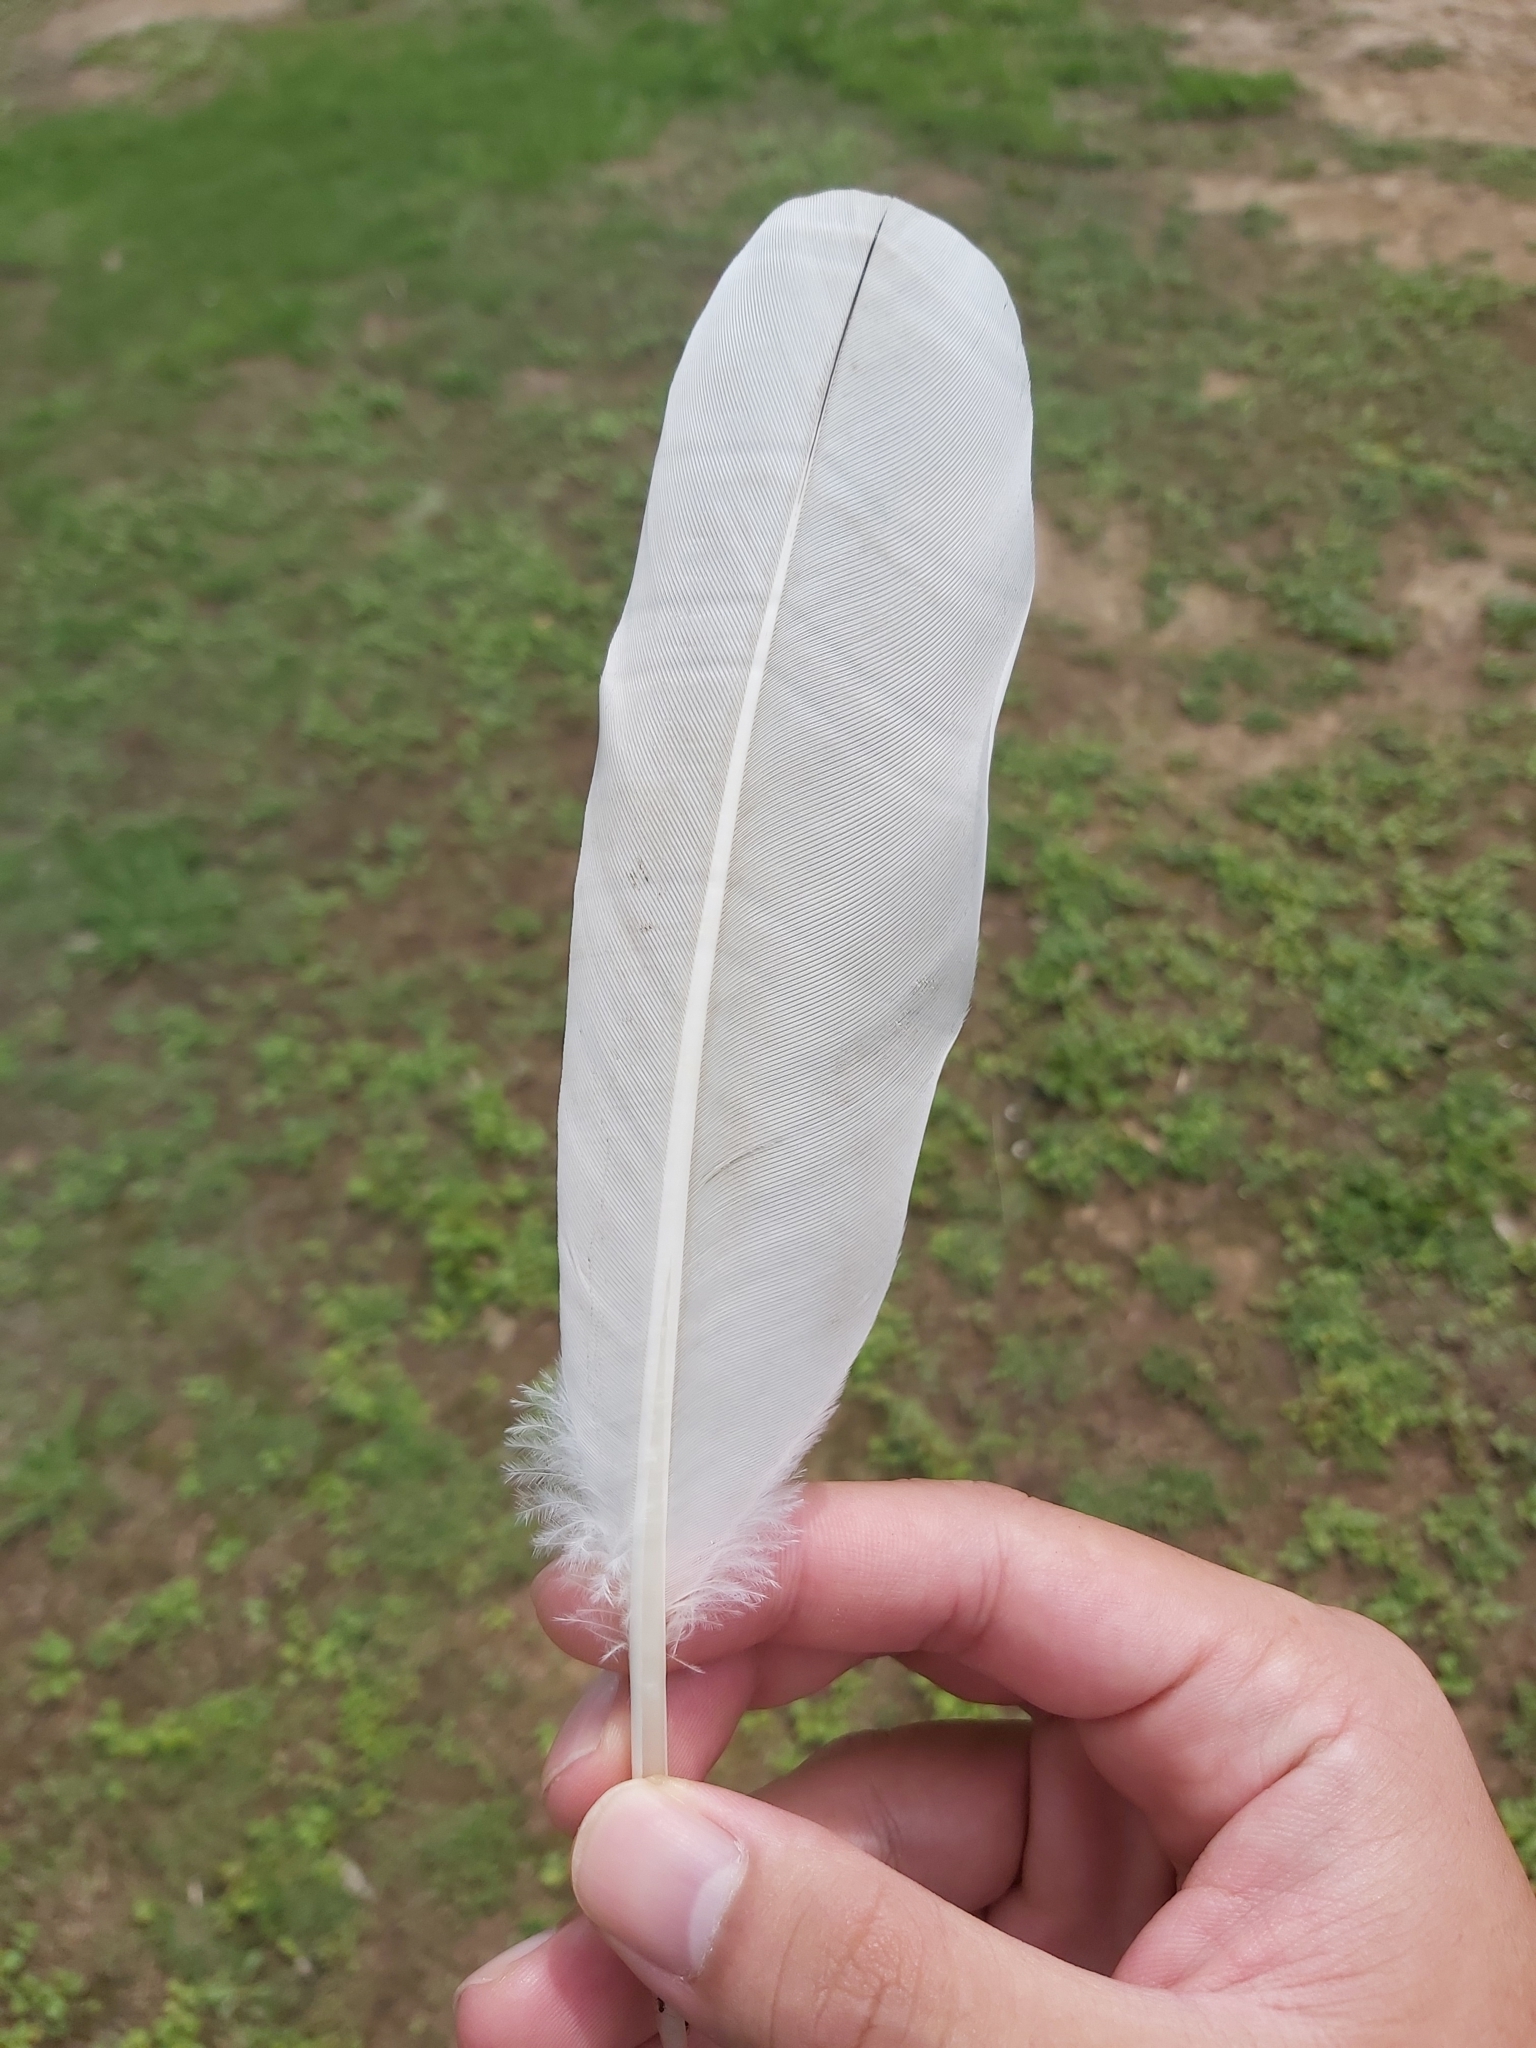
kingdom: Animalia
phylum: Chordata
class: Aves
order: Pelecaniformes
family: Threskiornithidae
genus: Threskiornis
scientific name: Threskiornis molucca
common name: Australian white ibis
